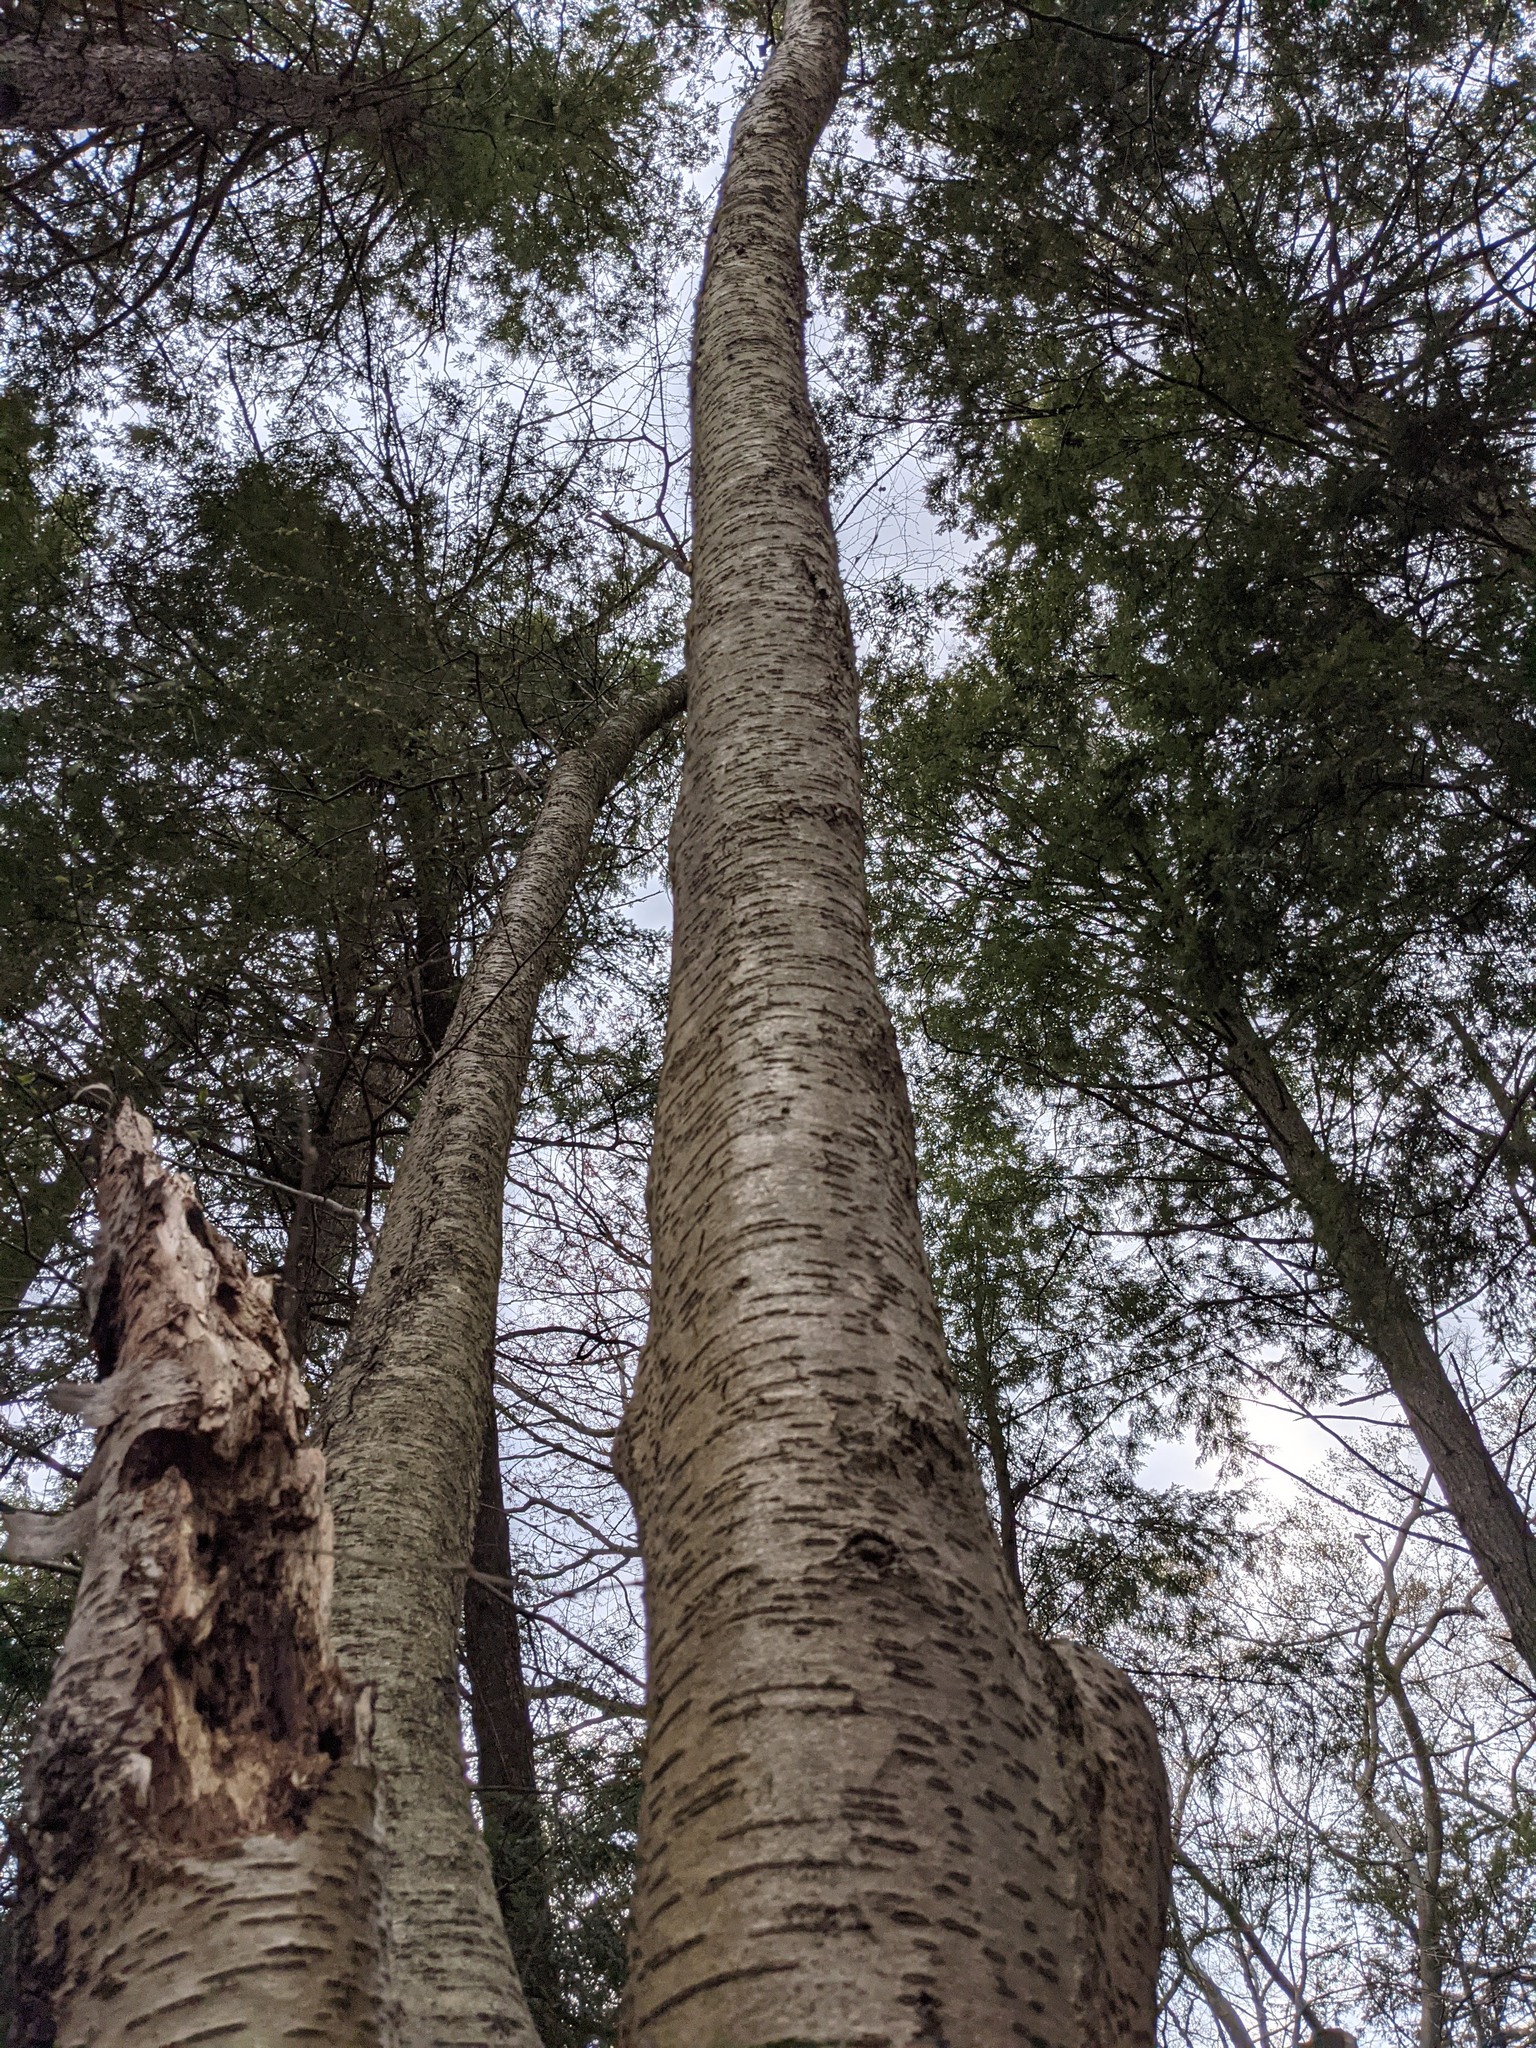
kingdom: Plantae
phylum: Tracheophyta
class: Magnoliopsida
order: Fagales
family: Betulaceae
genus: Betula
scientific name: Betula alleghaniensis
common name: Yellow birch
